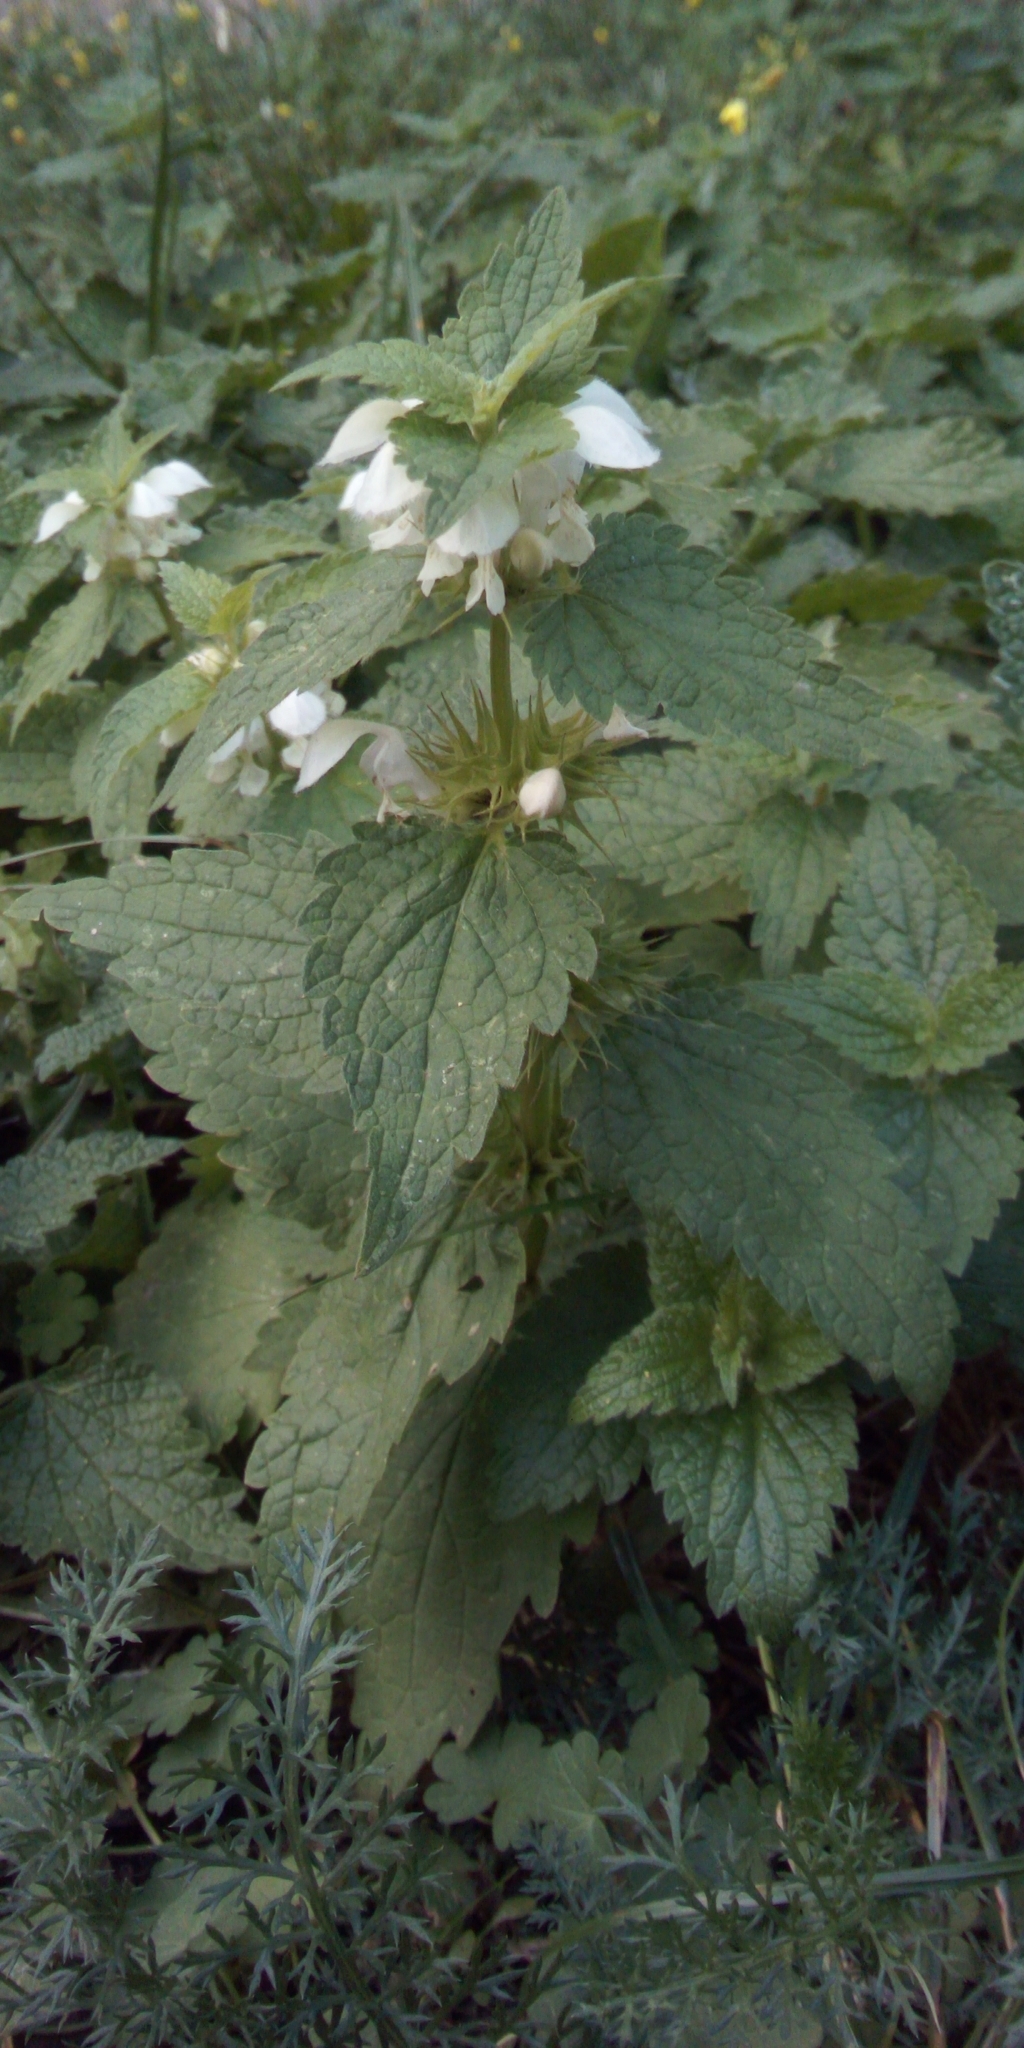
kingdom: Plantae
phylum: Tracheophyta
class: Magnoliopsida
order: Lamiales
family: Lamiaceae
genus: Lamium
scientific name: Lamium album
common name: White dead-nettle
